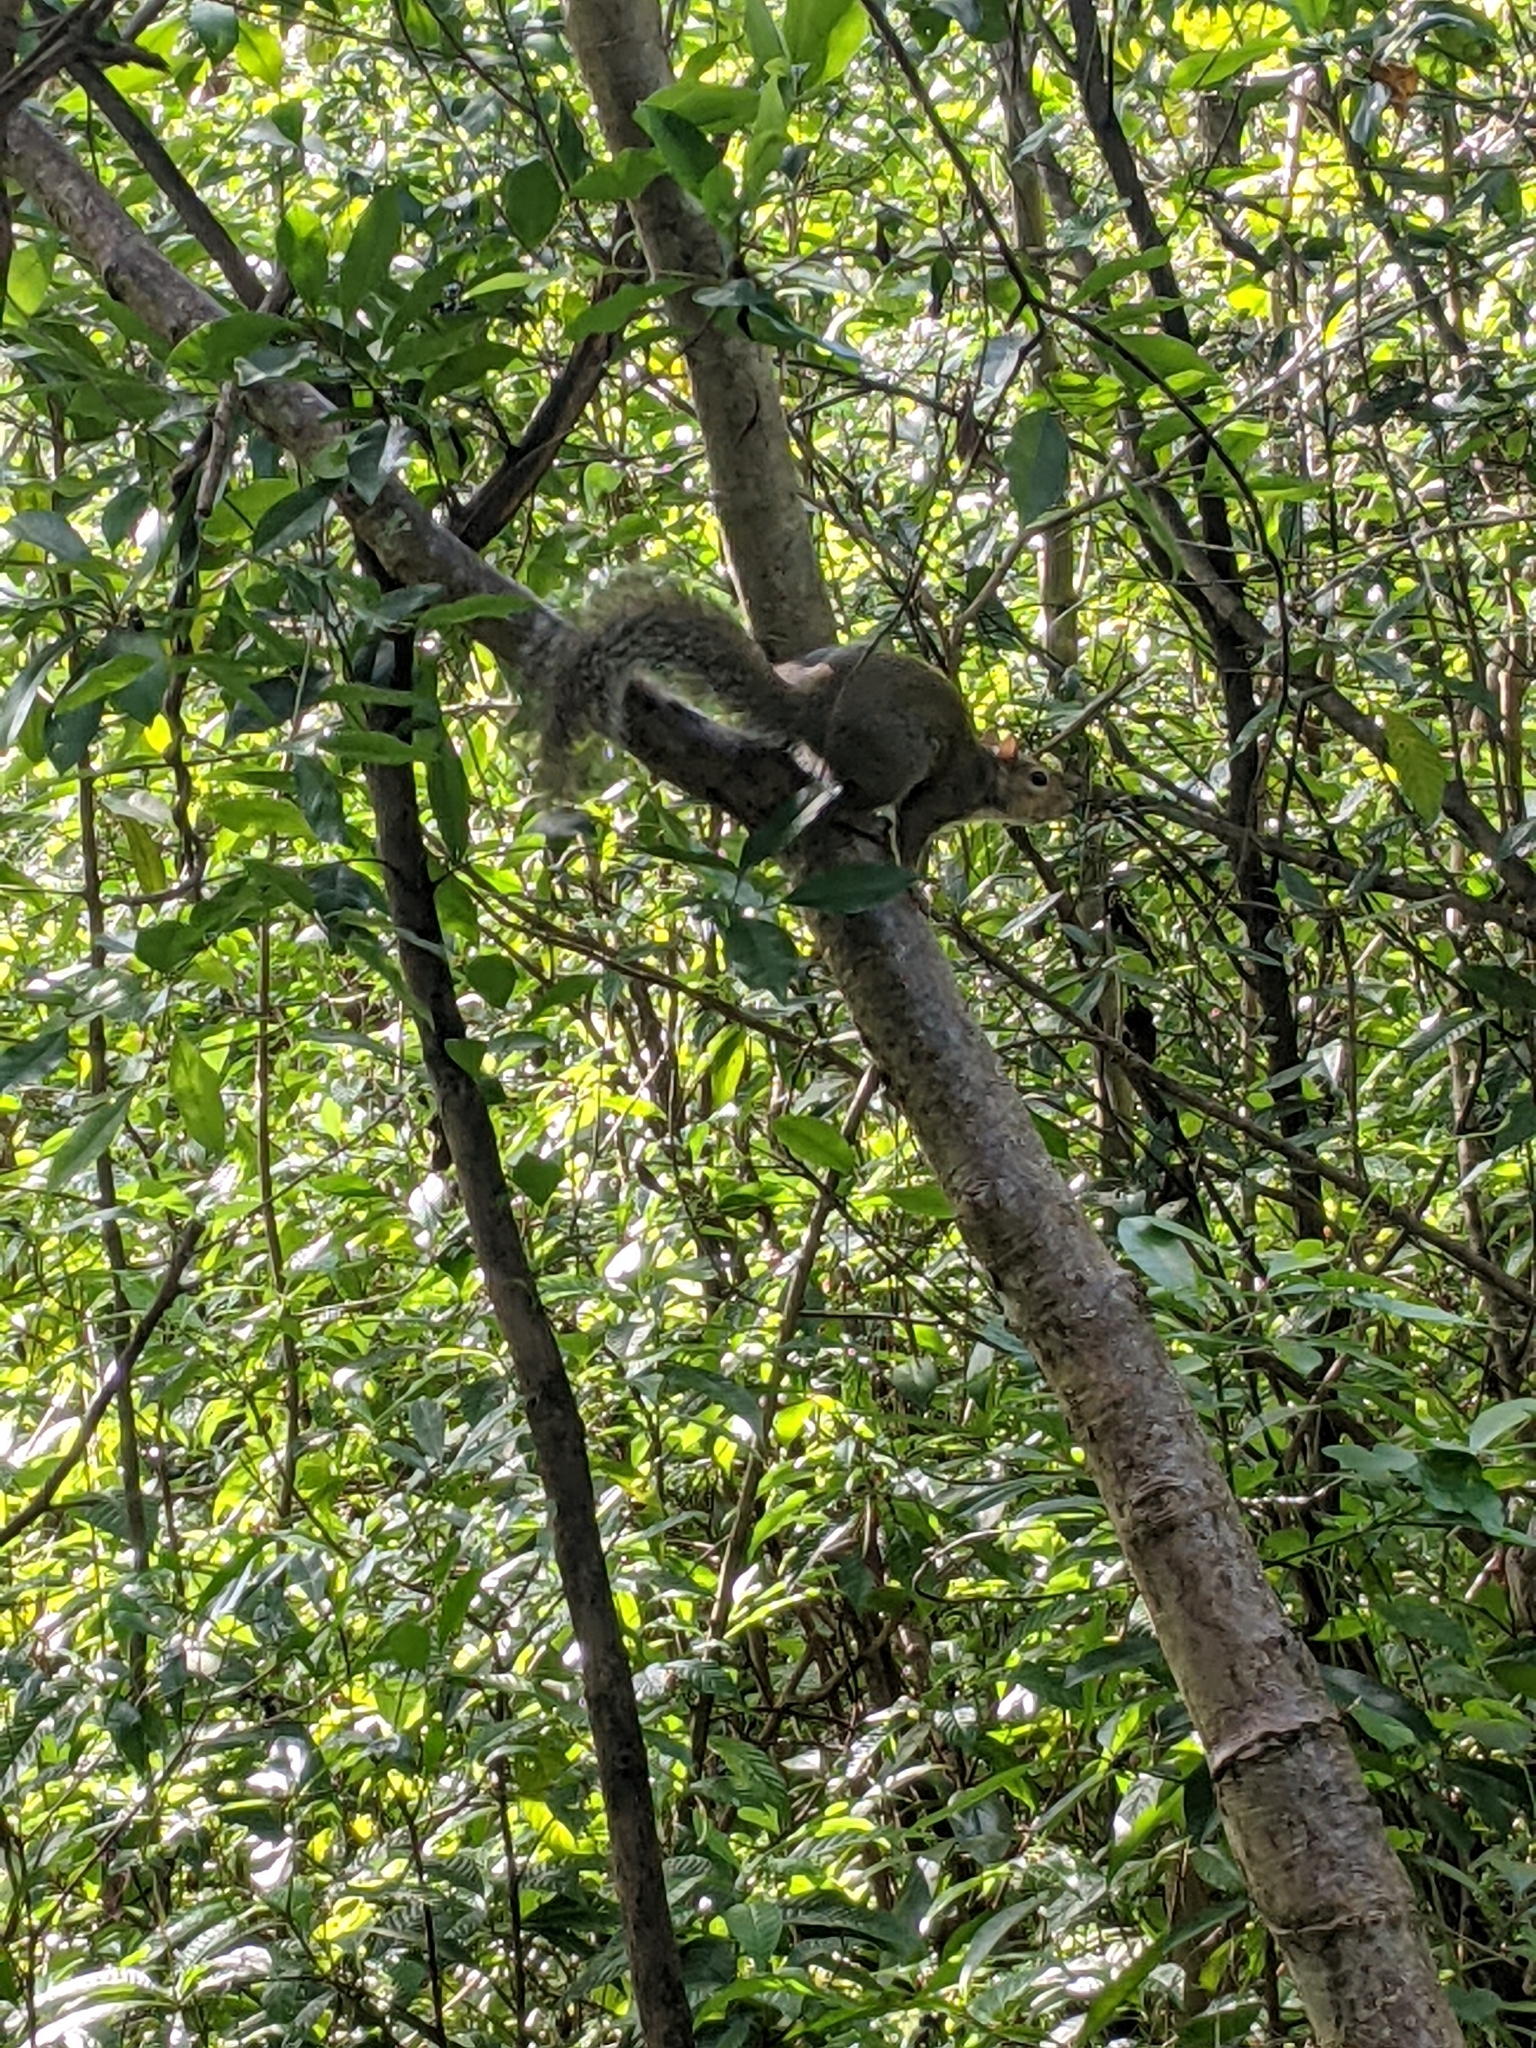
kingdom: Animalia
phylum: Chordata
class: Mammalia
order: Rodentia
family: Sciuridae
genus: Sciurus
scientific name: Sciurus carolinensis
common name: Eastern gray squirrel
